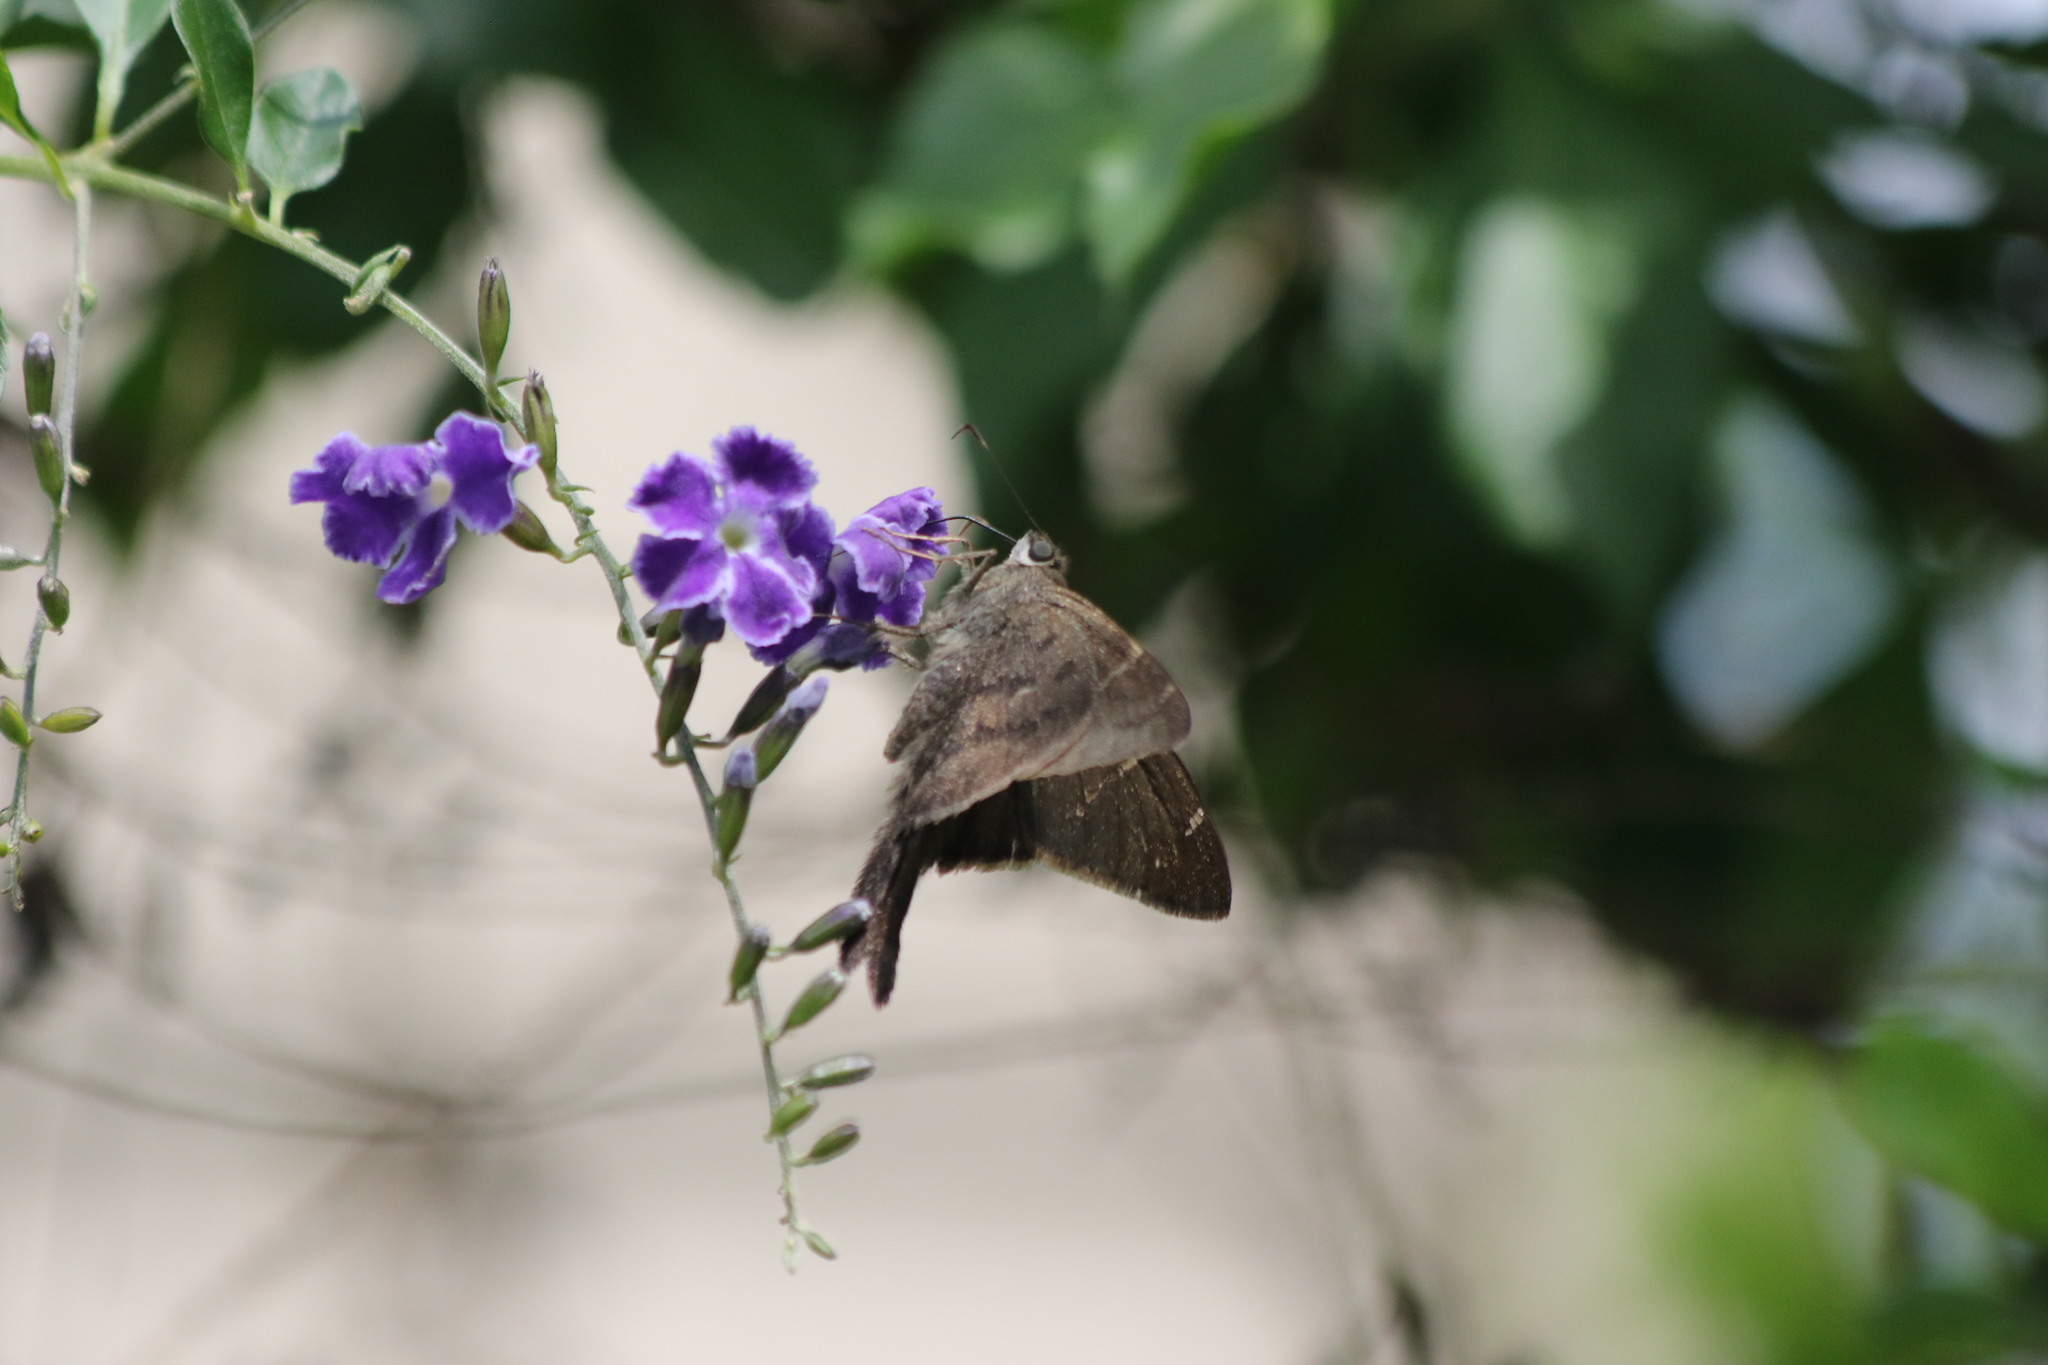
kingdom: Animalia
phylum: Arthropoda
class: Insecta
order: Lepidoptera
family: Hesperiidae
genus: Urbanus
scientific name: Urbanus procne
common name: Brown longtail
